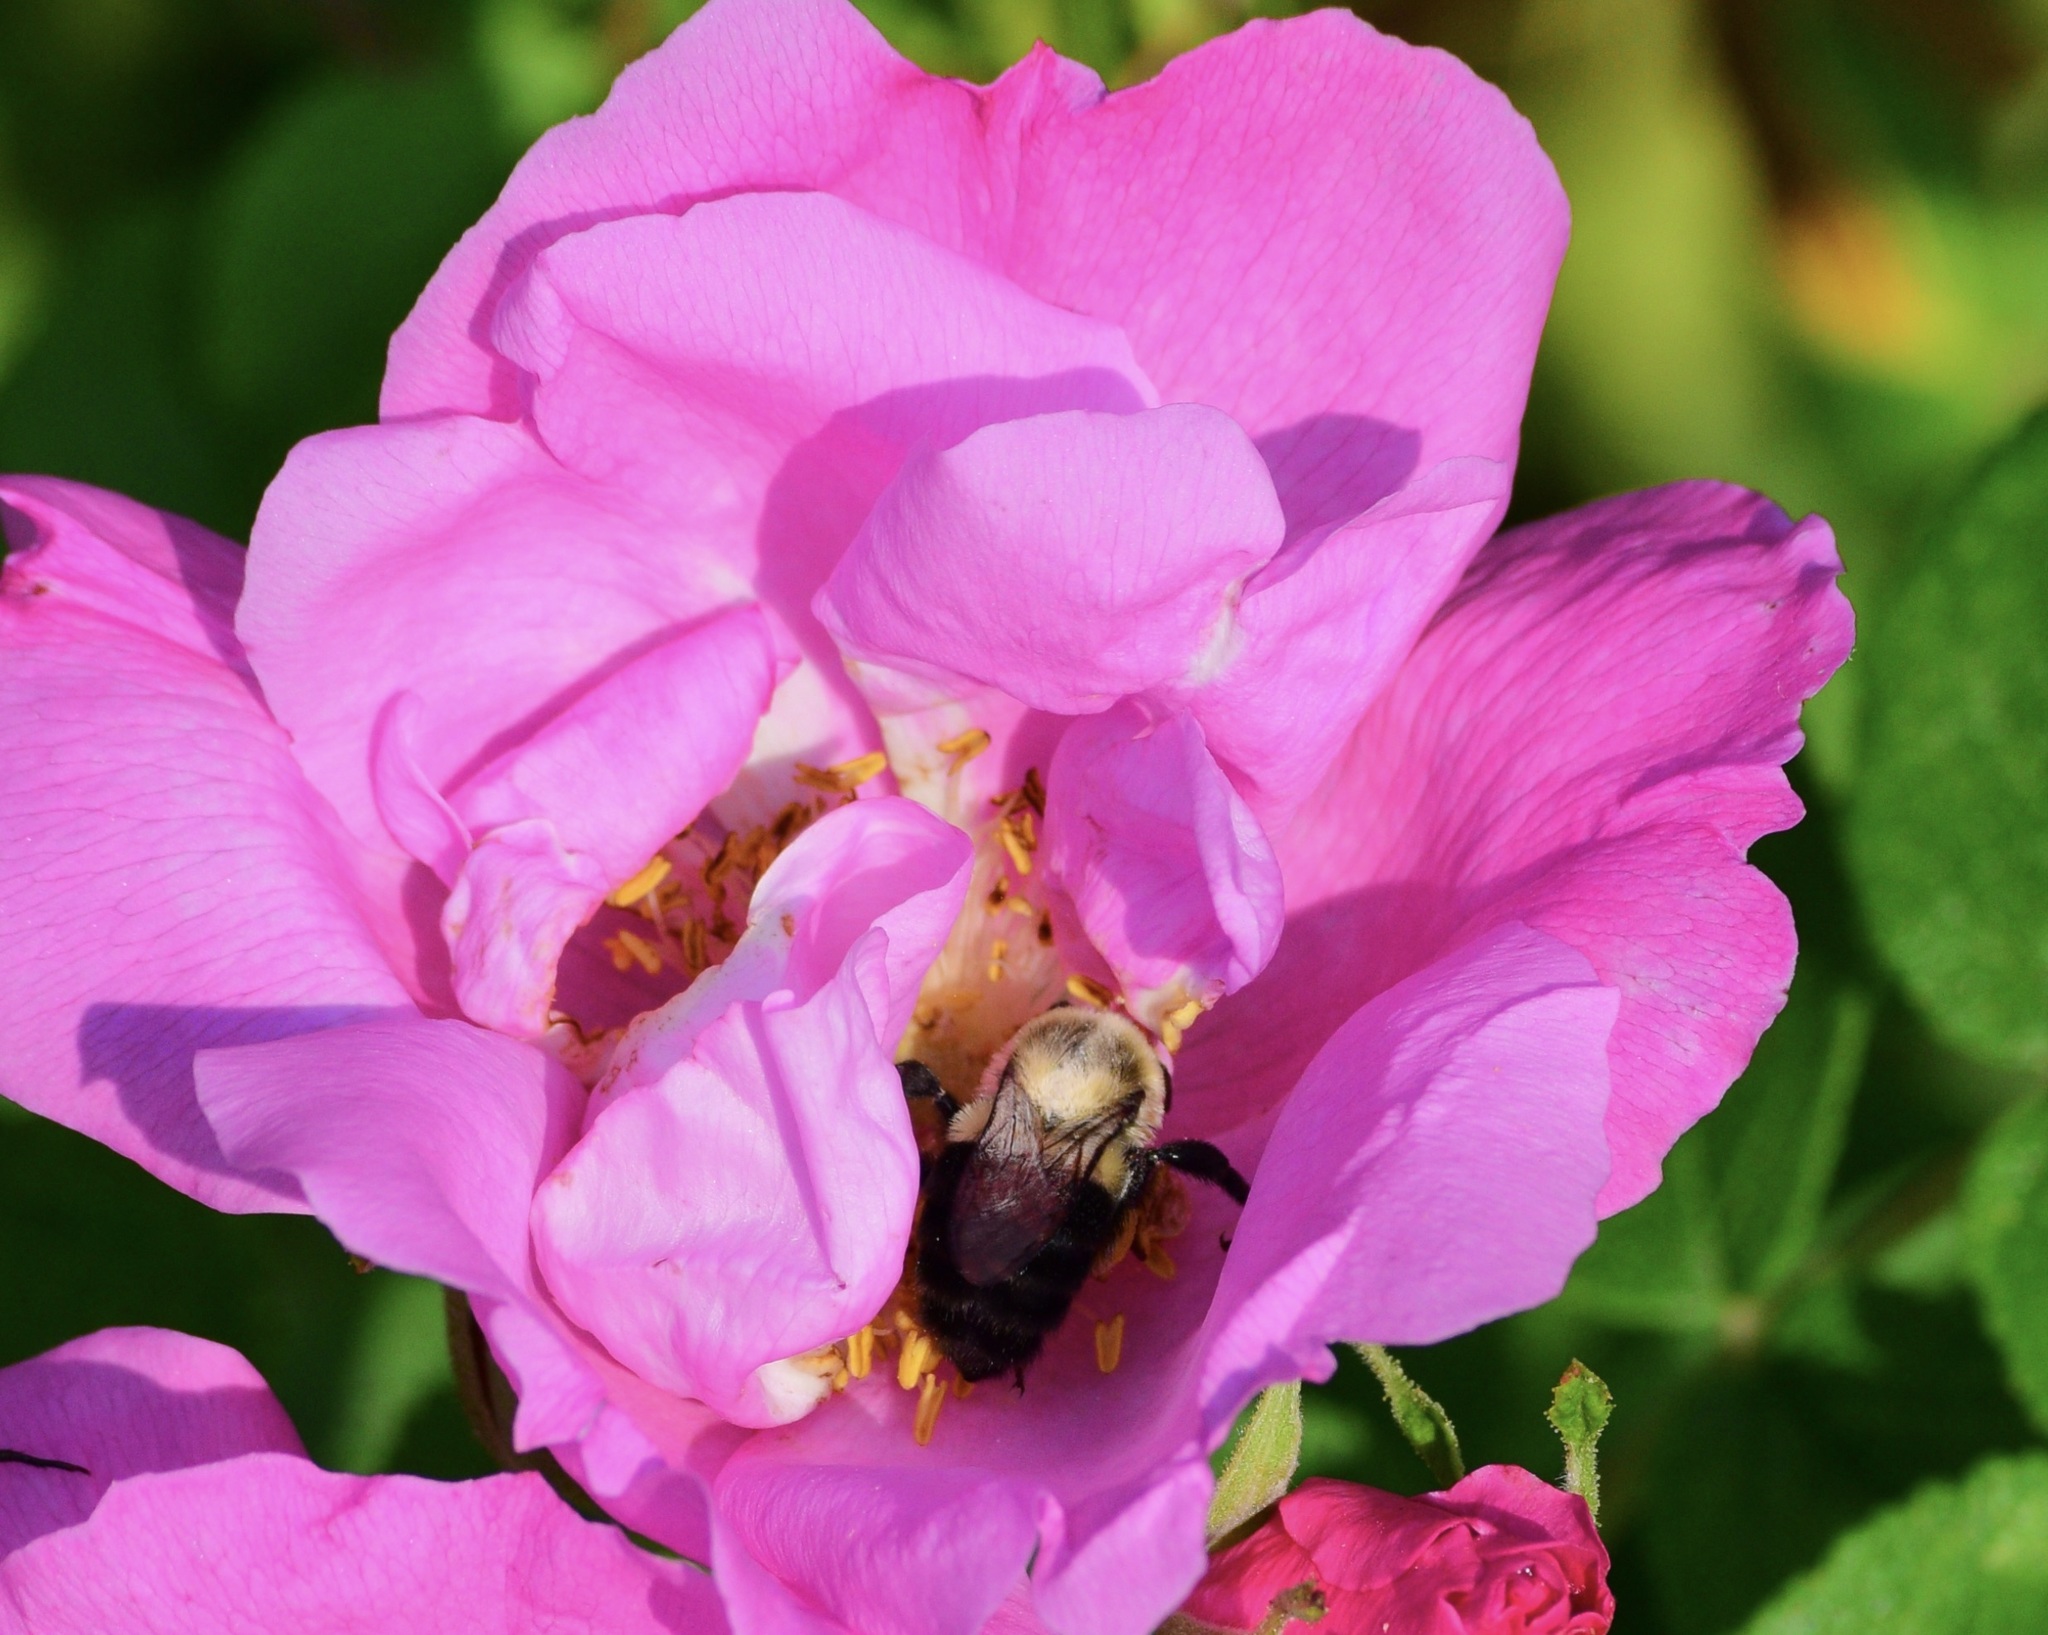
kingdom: Animalia
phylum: Arthropoda
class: Insecta
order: Hymenoptera
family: Apidae
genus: Bombus
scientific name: Bombus impatiens
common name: Common eastern bumble bee
